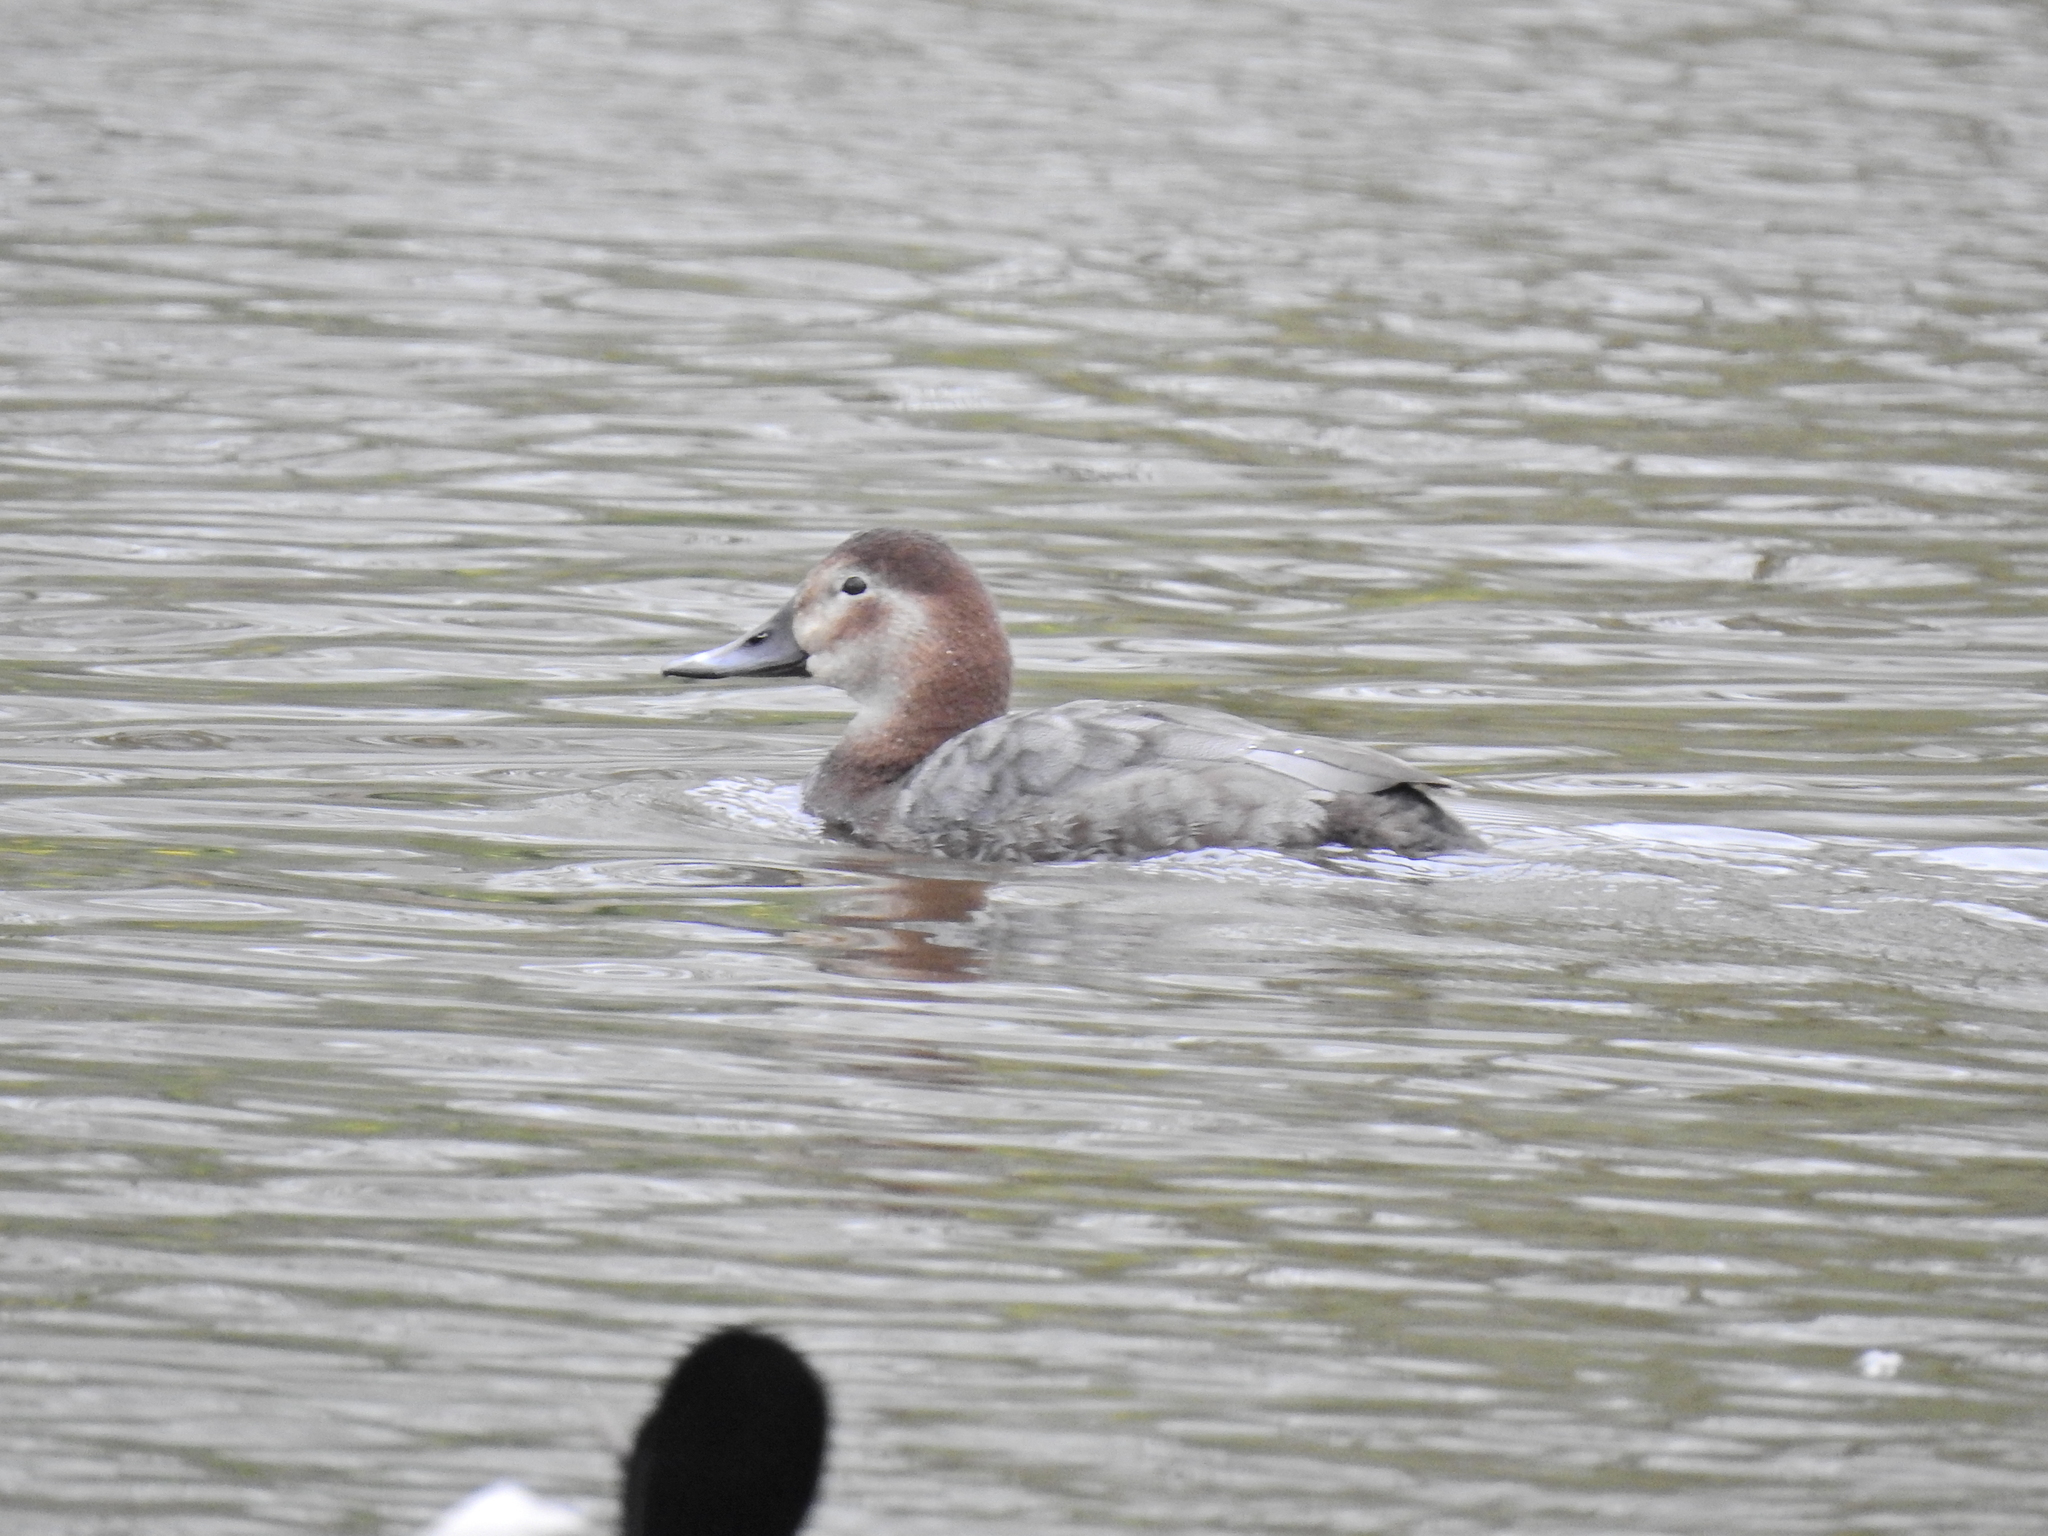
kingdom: Animalia
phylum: Chordata
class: Aves
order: Anseriformes
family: Anatidae
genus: Aythya
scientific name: Aythya ferina
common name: Common pochard
